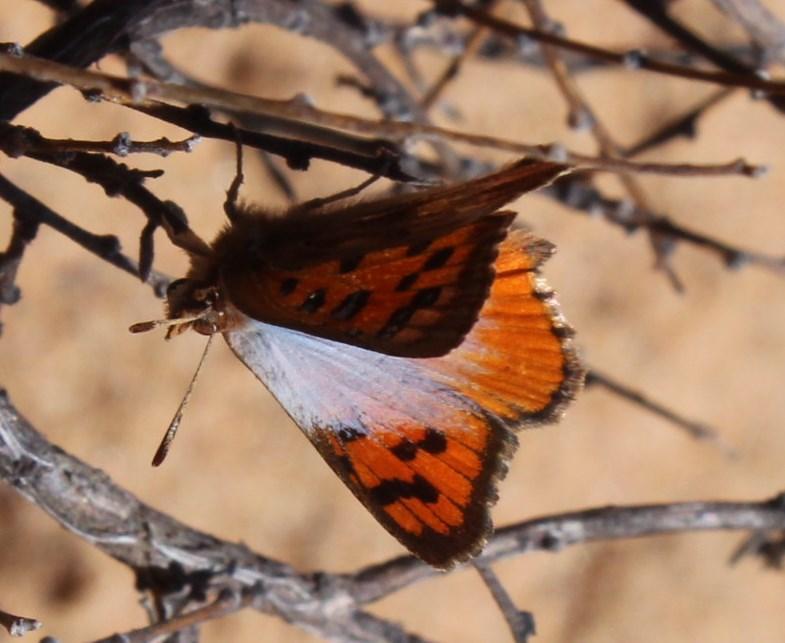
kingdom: Animalia
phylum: Arthropoda
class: Insecta
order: Lepidoptera
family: Lycaenidae
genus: Chrysoritis
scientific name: Chrysoritis pan
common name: Pan opal
